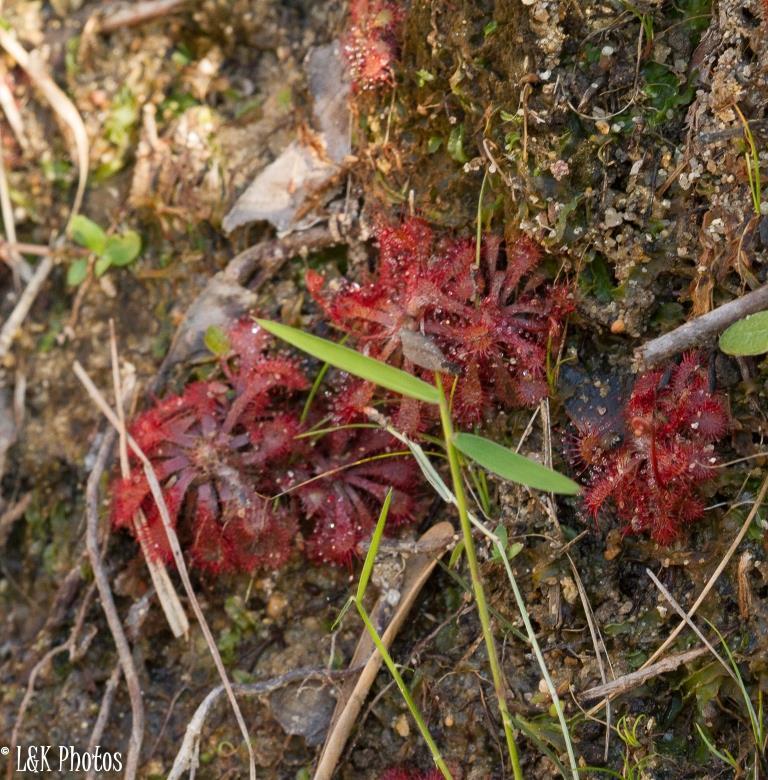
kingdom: Plantae
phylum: Tracheophyta
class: Magnoliopsida
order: Caryophyllales
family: Droseraceae
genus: Drosera
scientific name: Drosera natalensis
